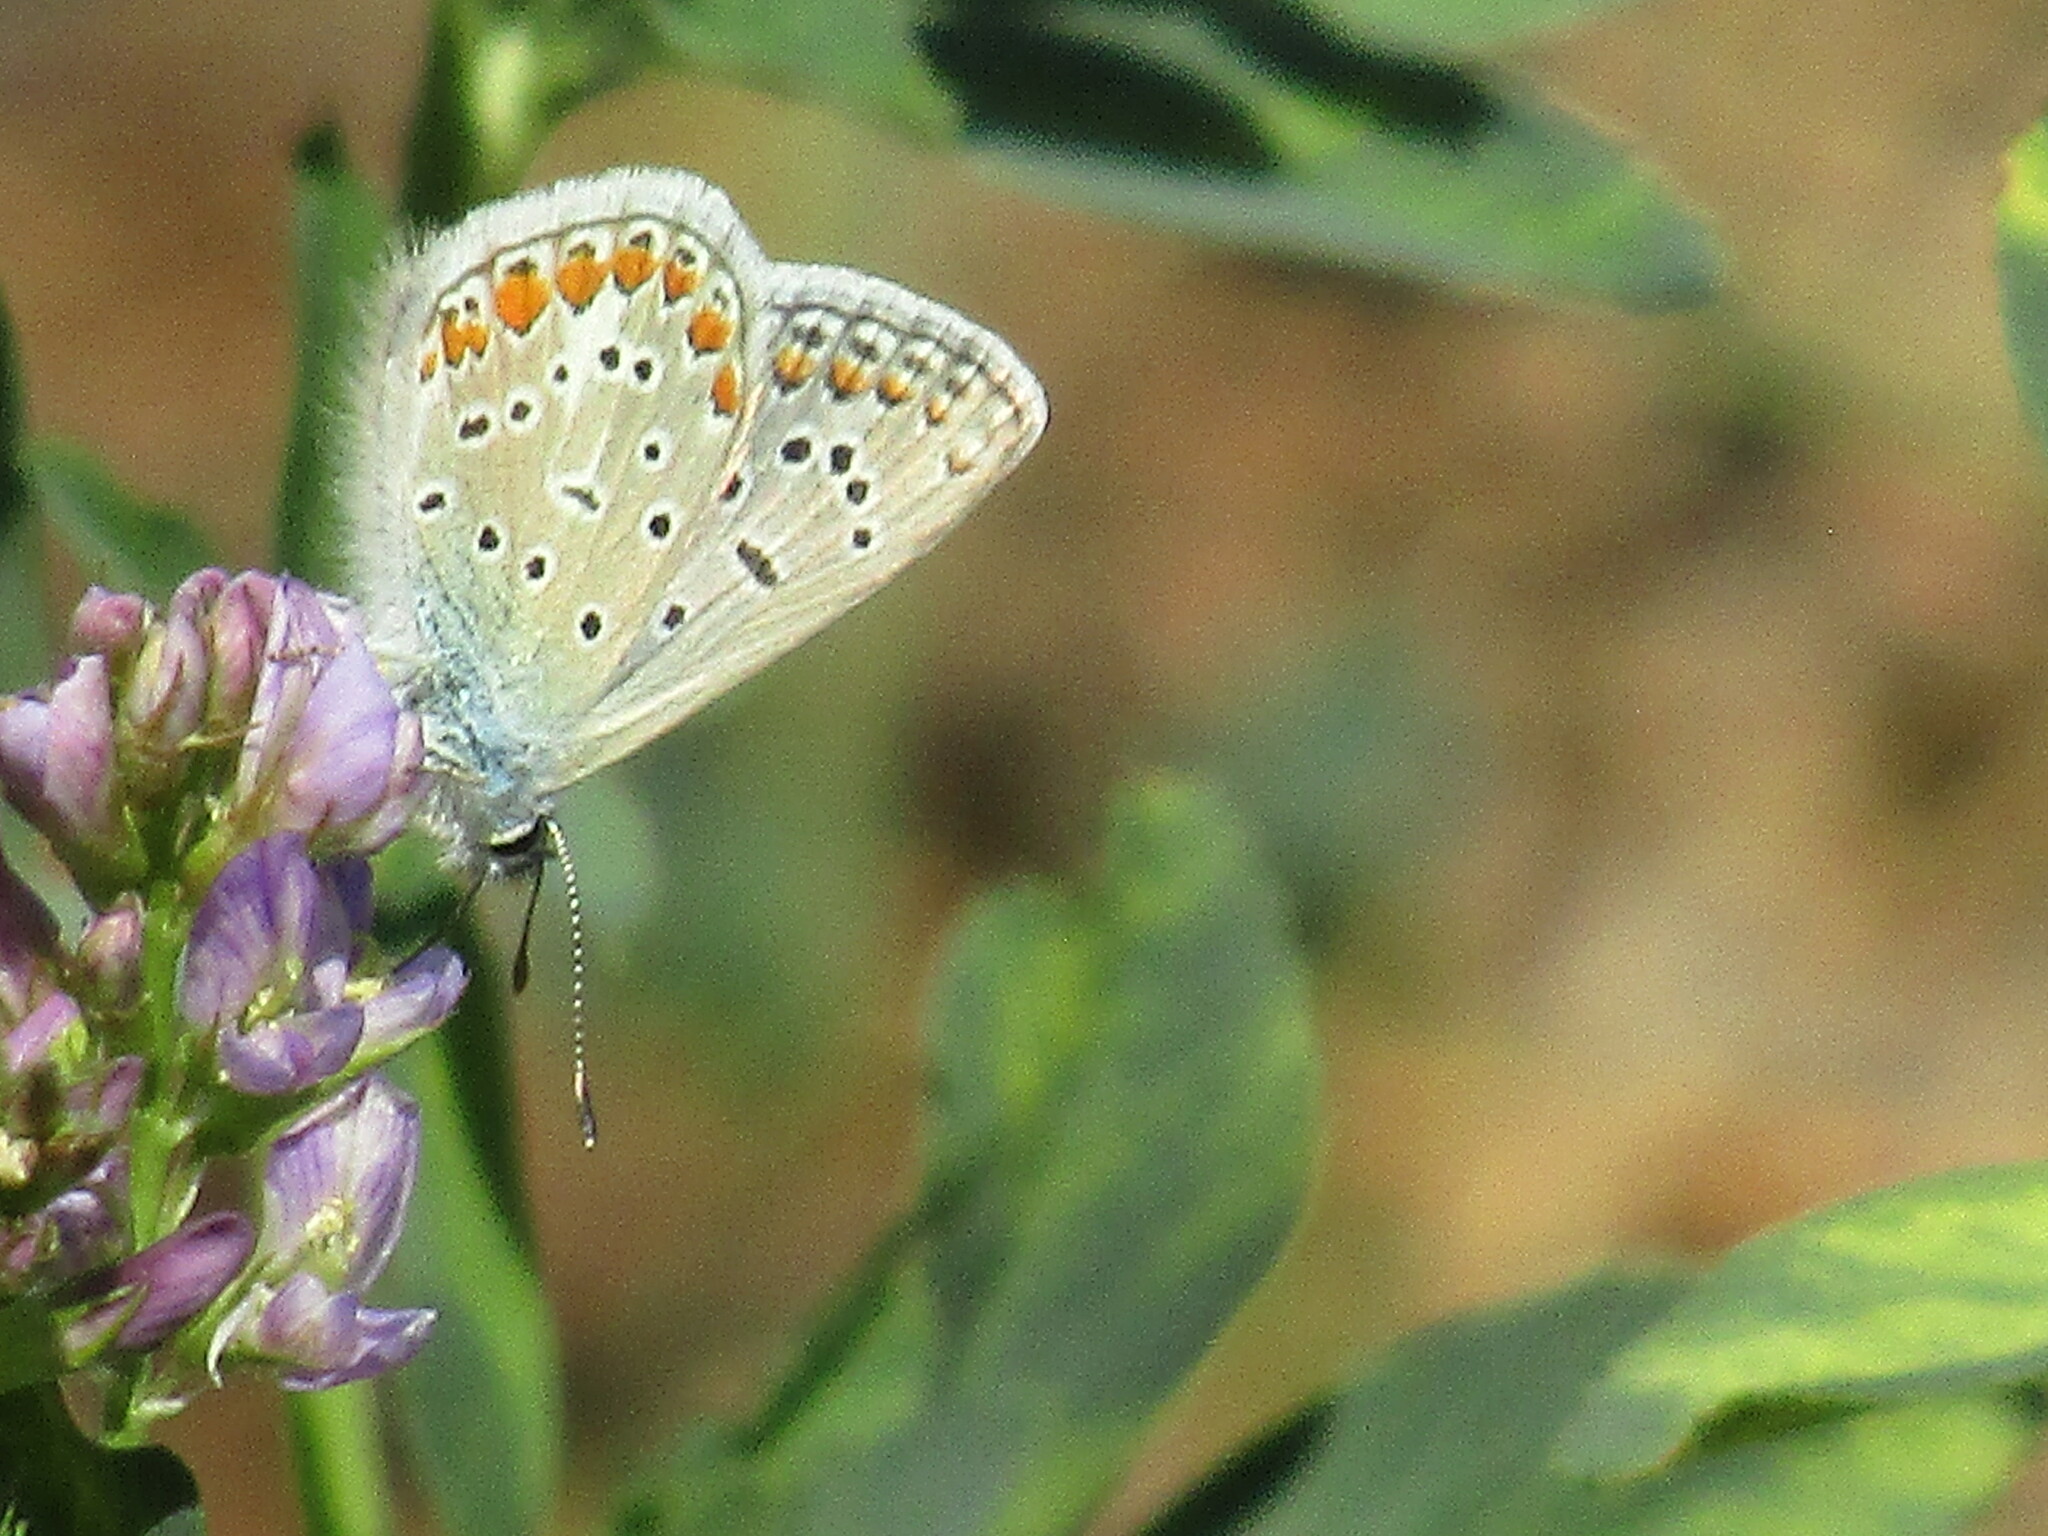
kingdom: Animalia
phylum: Arthropoda
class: Insecta
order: Lepidoptera
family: Lycaenidae
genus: Polyommatus
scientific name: Polyommatus icarus
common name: Common blue
